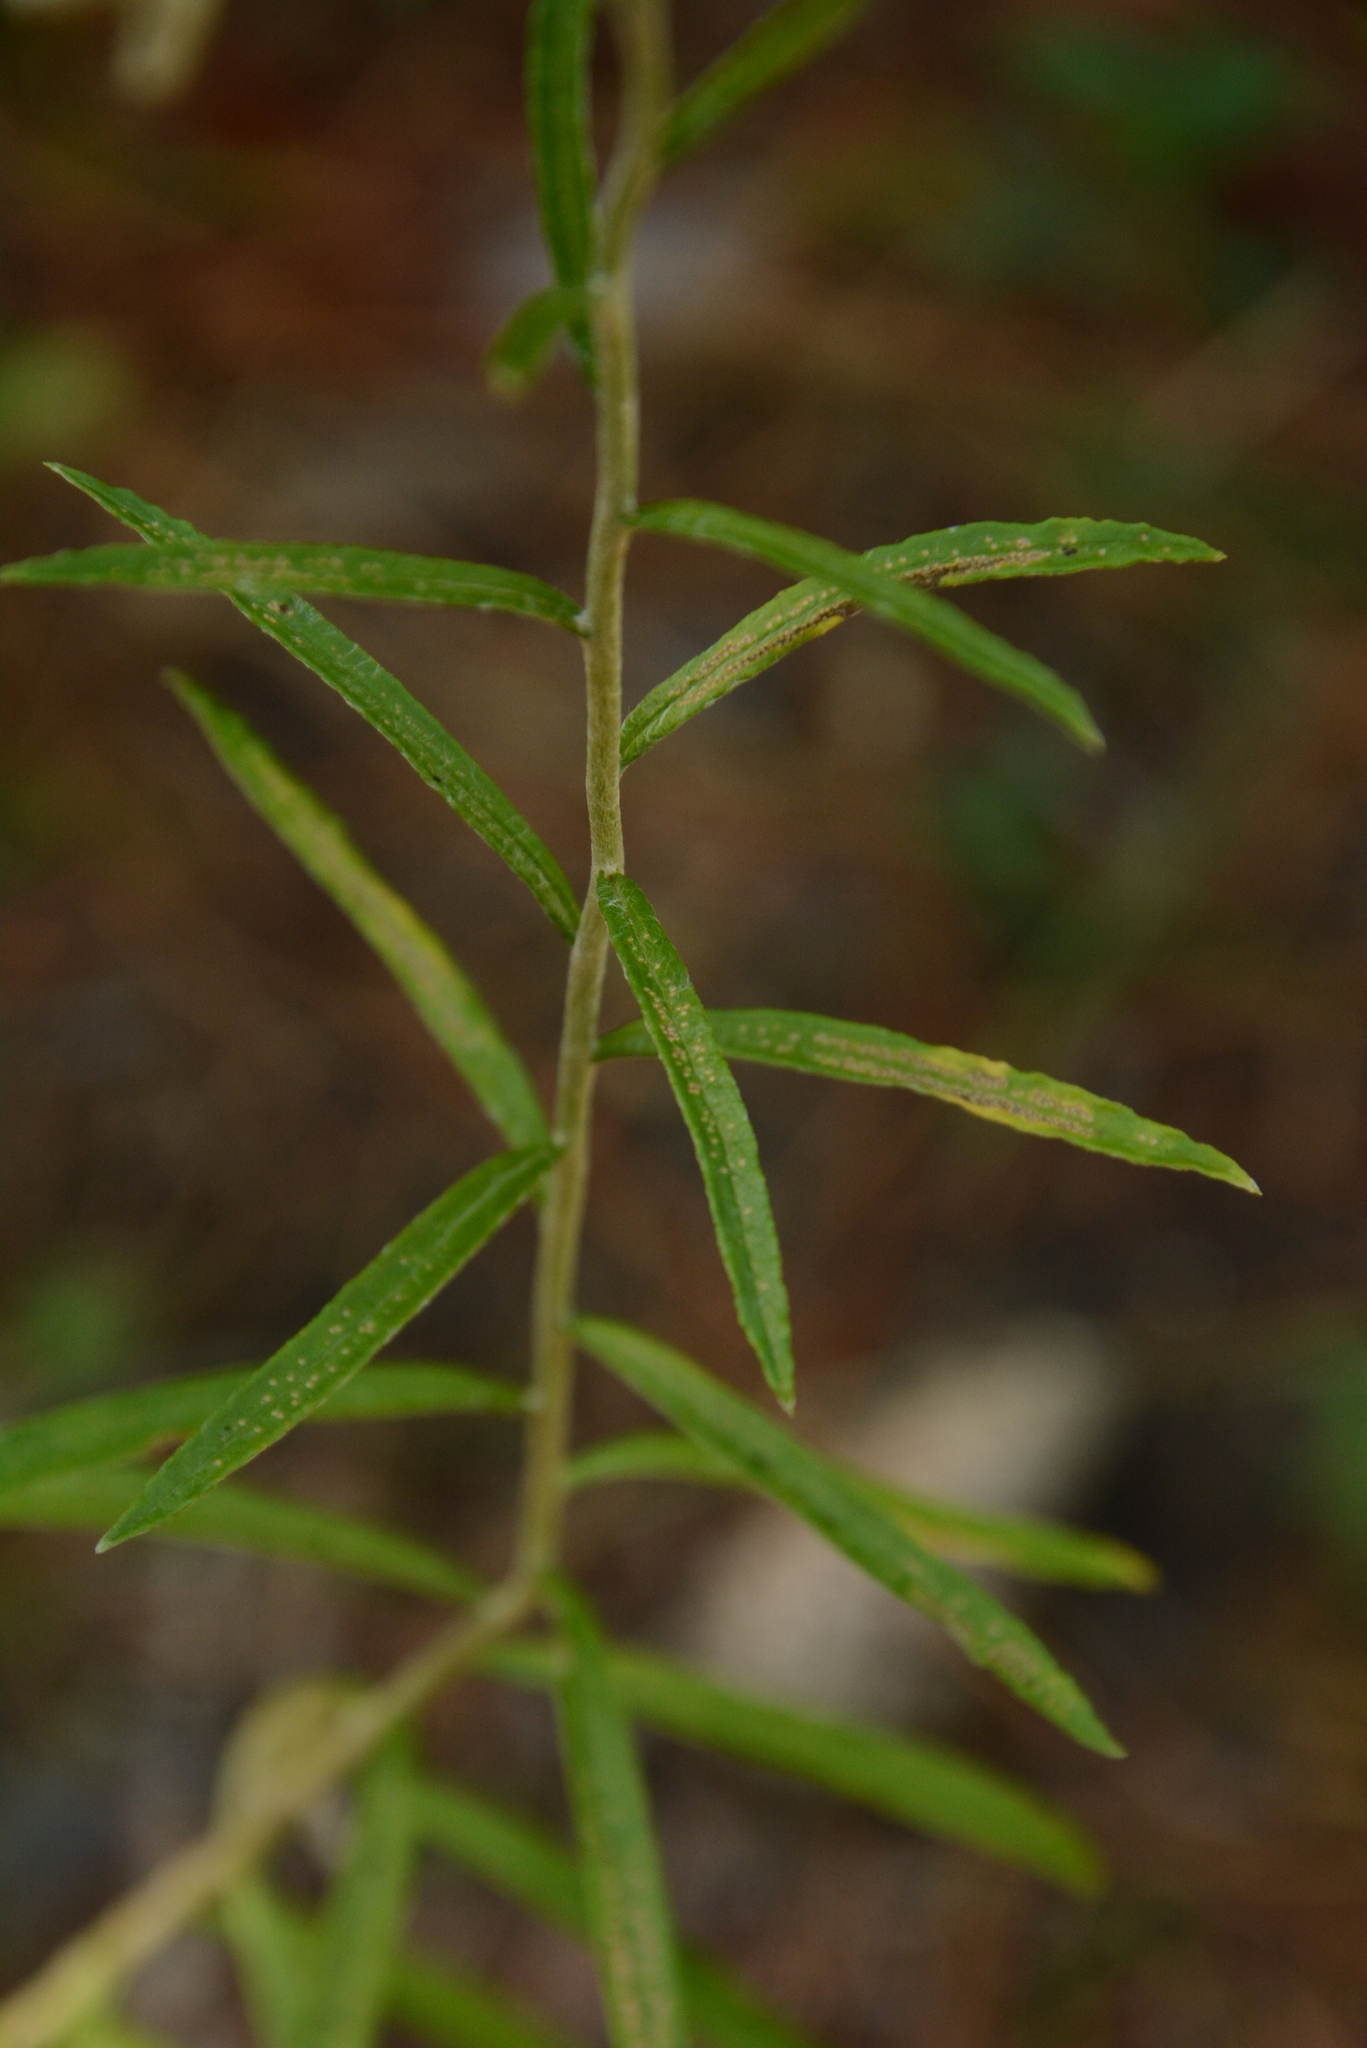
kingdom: Plantae
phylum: Tracheophyta
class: Magnoliopsida
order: Asterales
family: Asteraceae
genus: Pseudognaphalium
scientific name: Pseudognaphalium obtusifolium
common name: Eastern rabbit-tobacco
